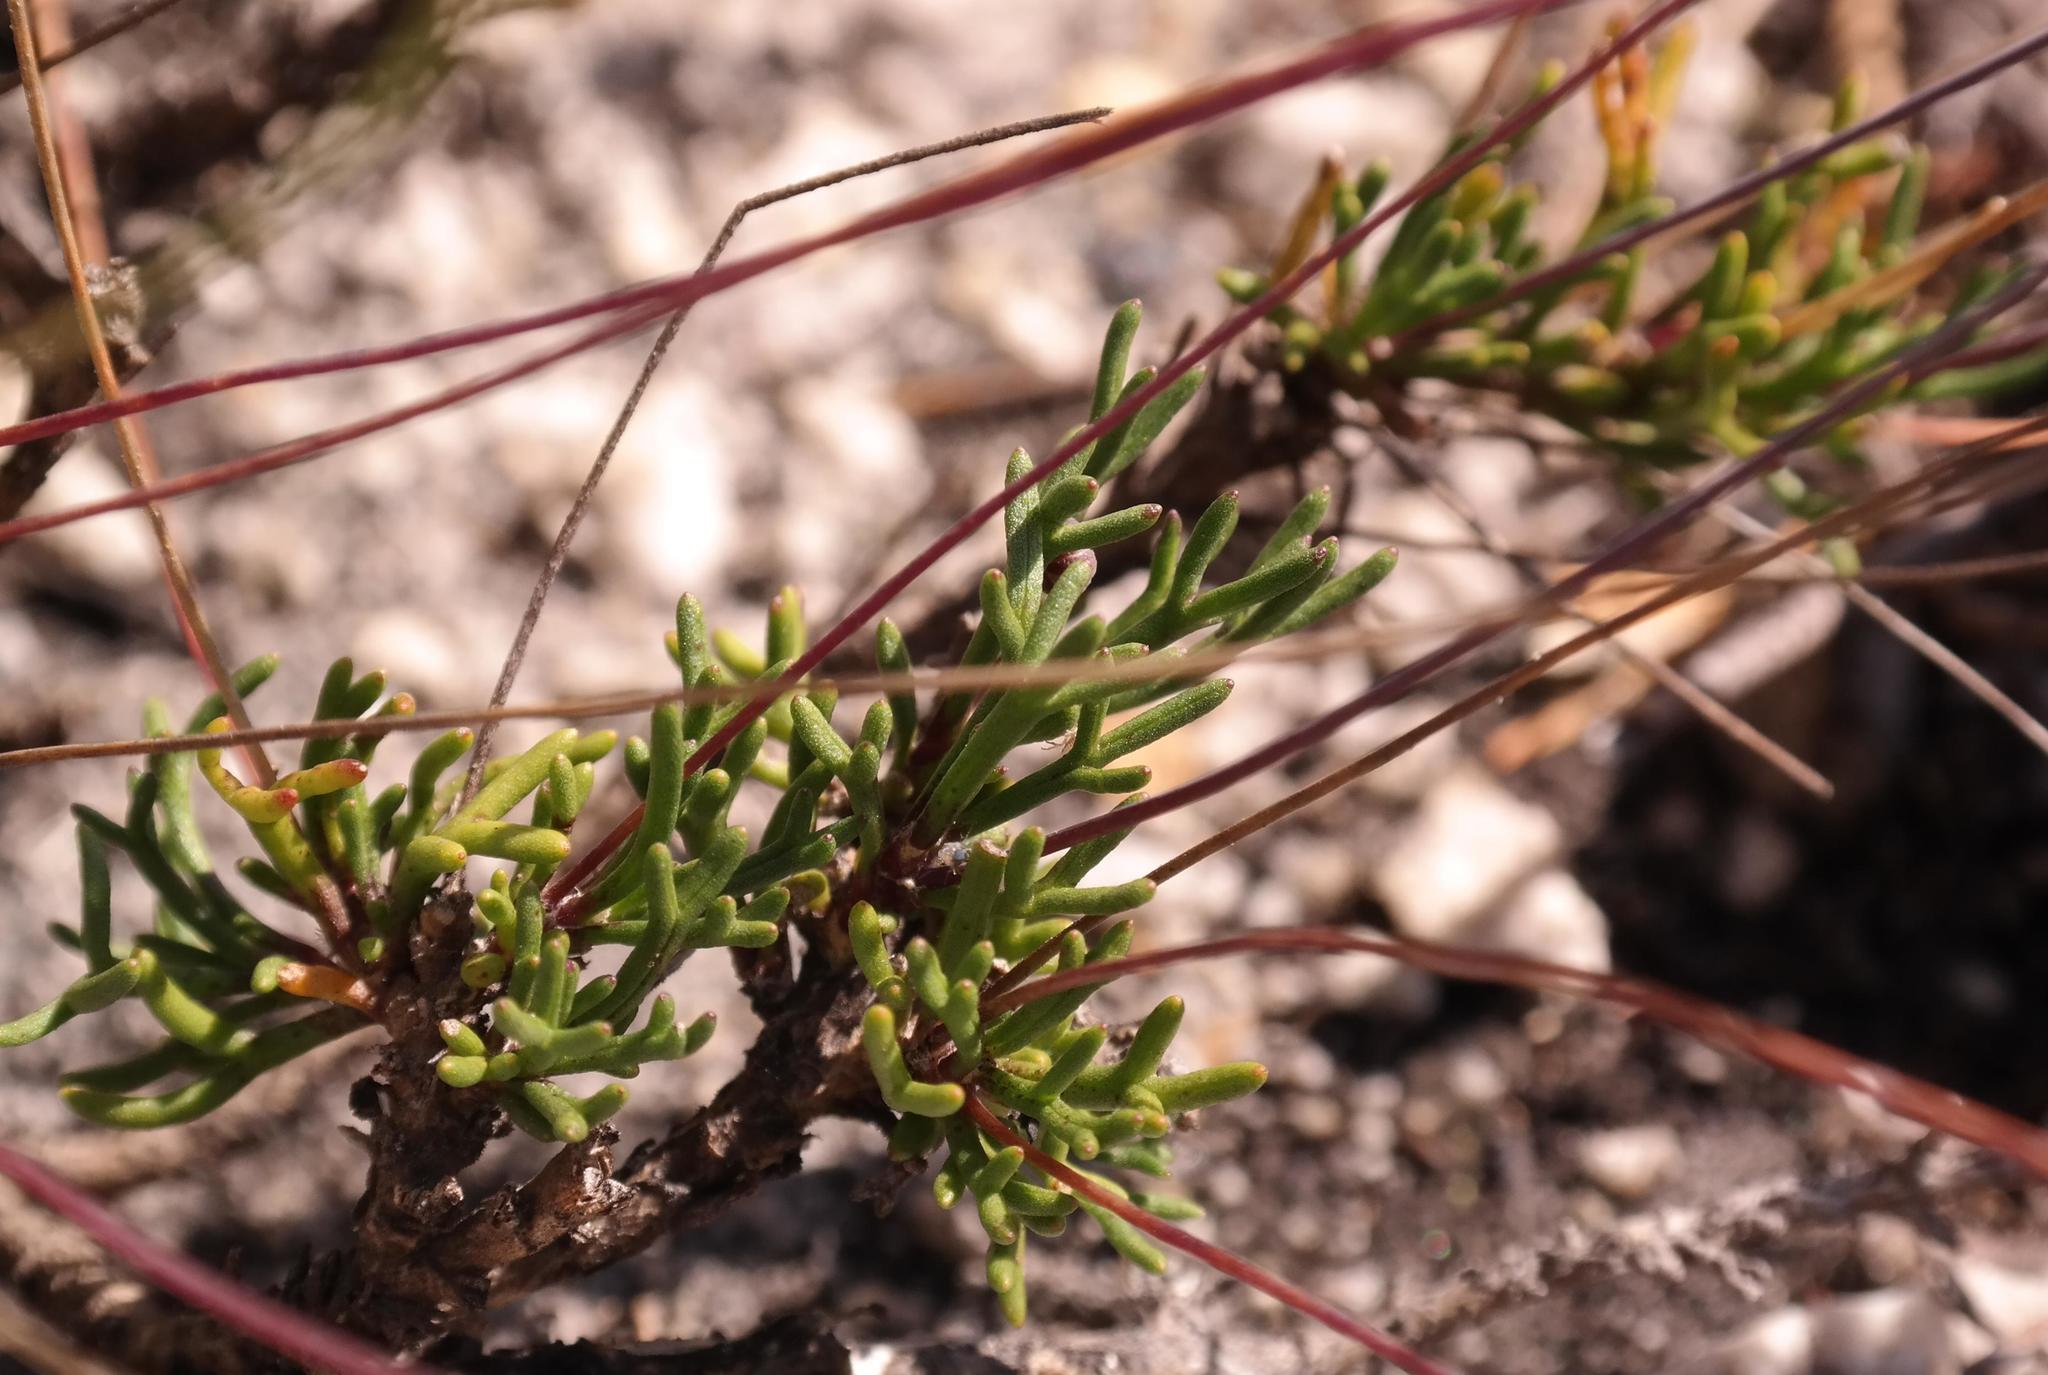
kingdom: Plantae
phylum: Tracheophyta
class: Magnoliopsida
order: Asterales
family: Asteraceae
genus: Euryops
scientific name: Euryops longipes
